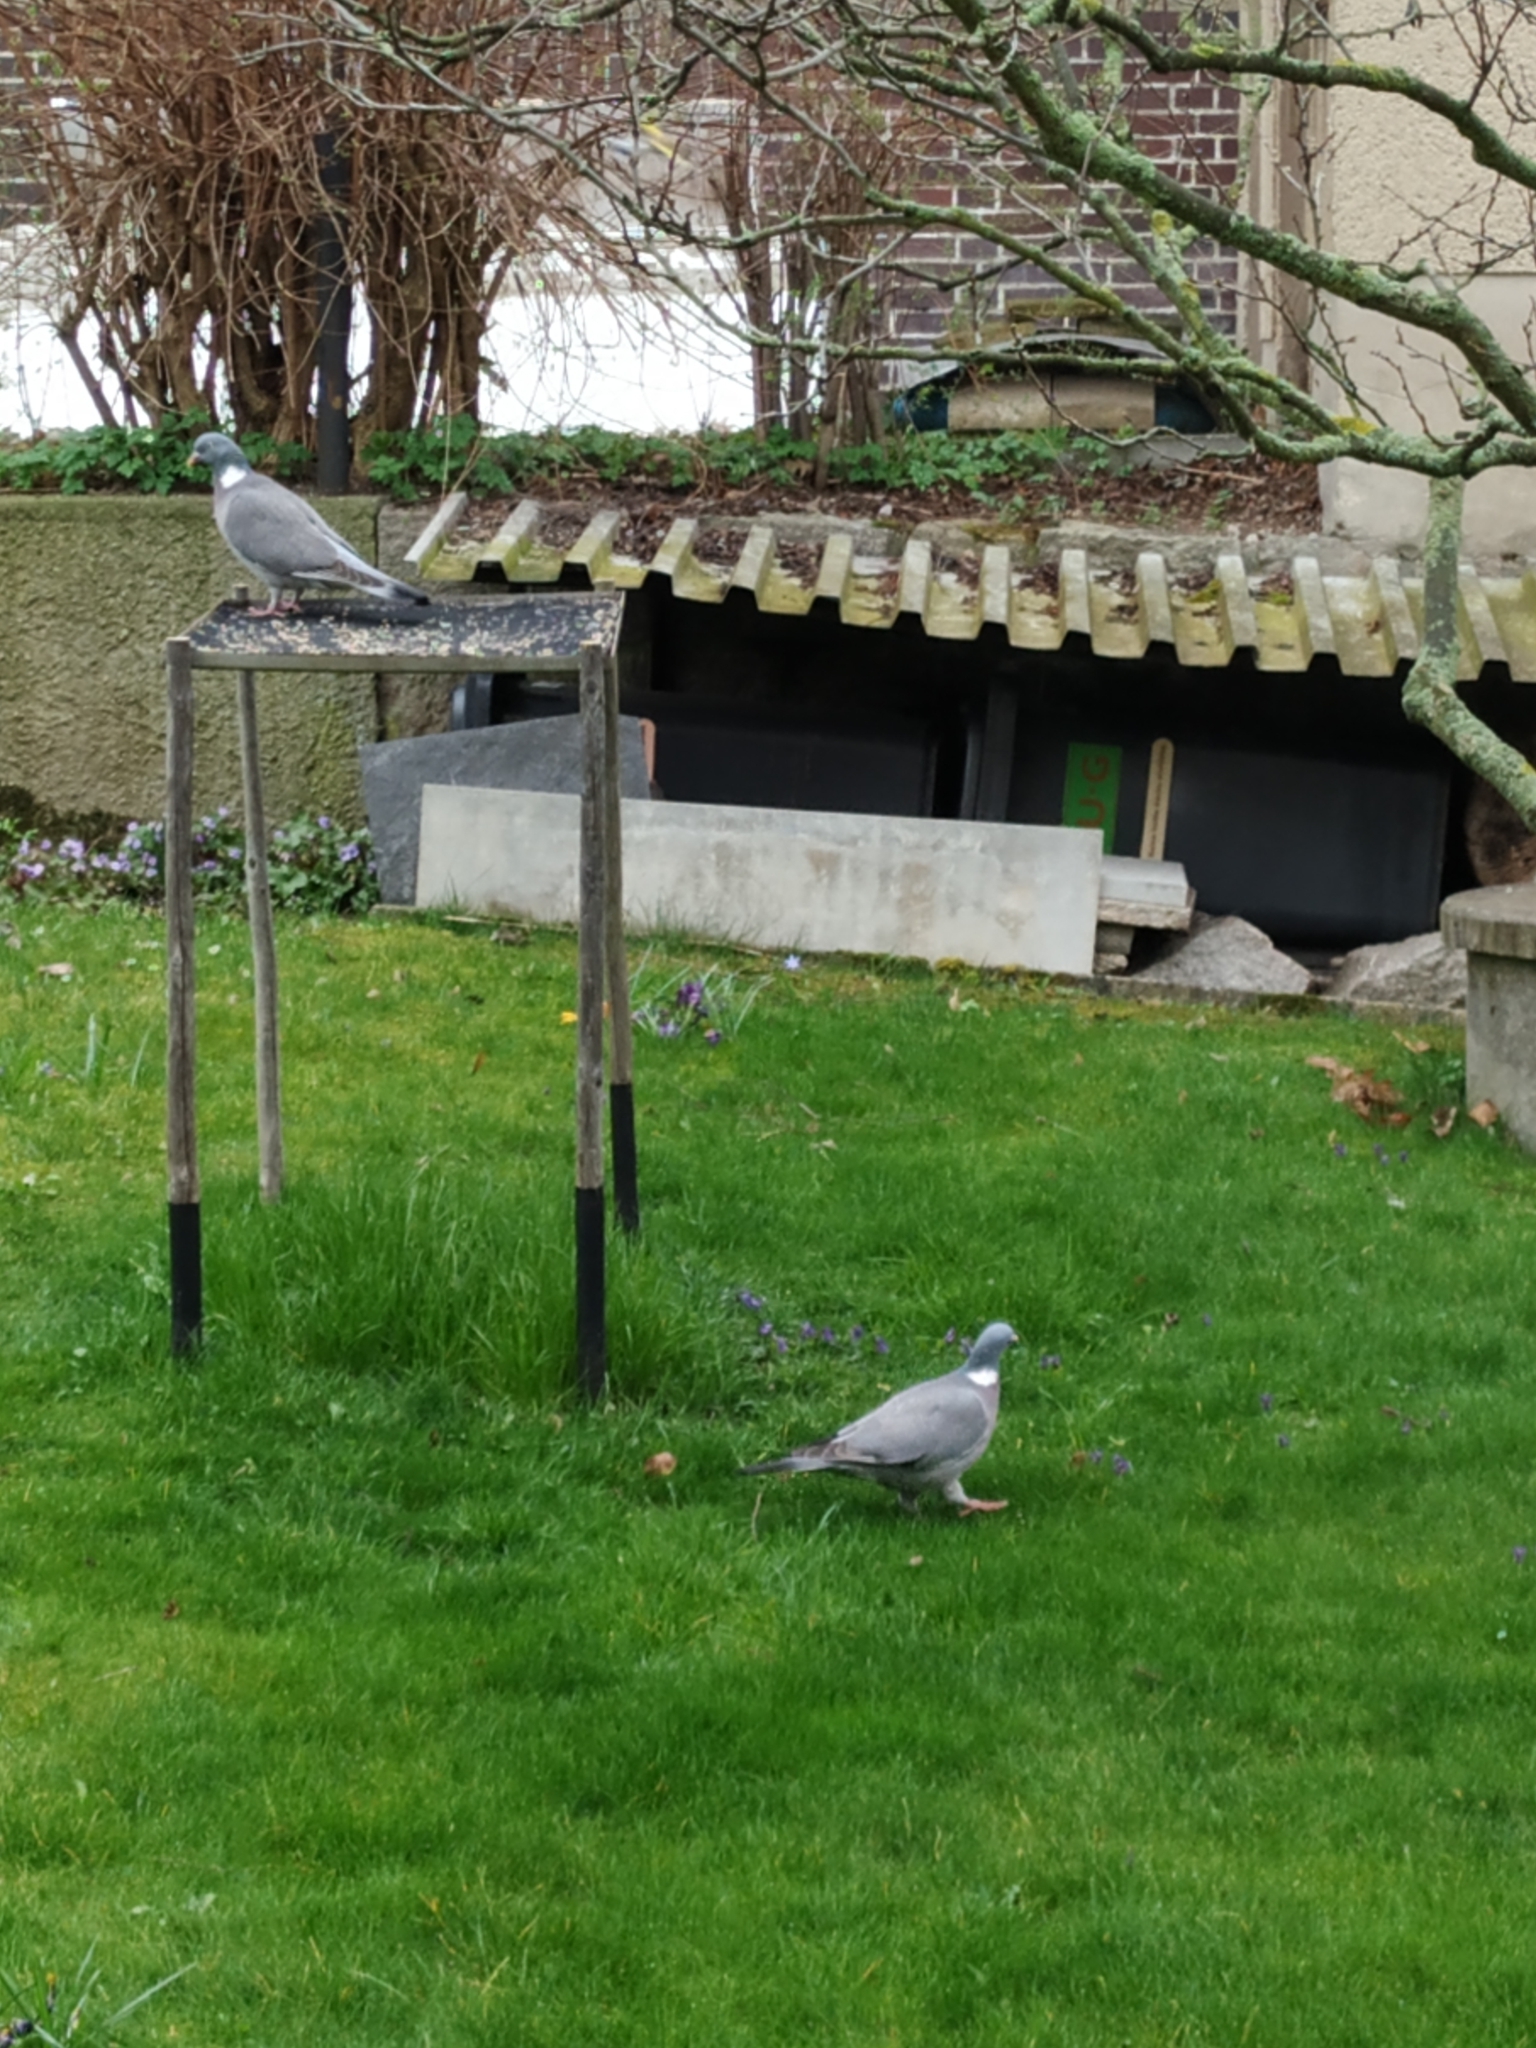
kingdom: Animalia
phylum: Chordata
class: Aves
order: Columbiformes
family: Columbidae
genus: Columba
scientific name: Columba palumbus
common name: Common wood pigeon
